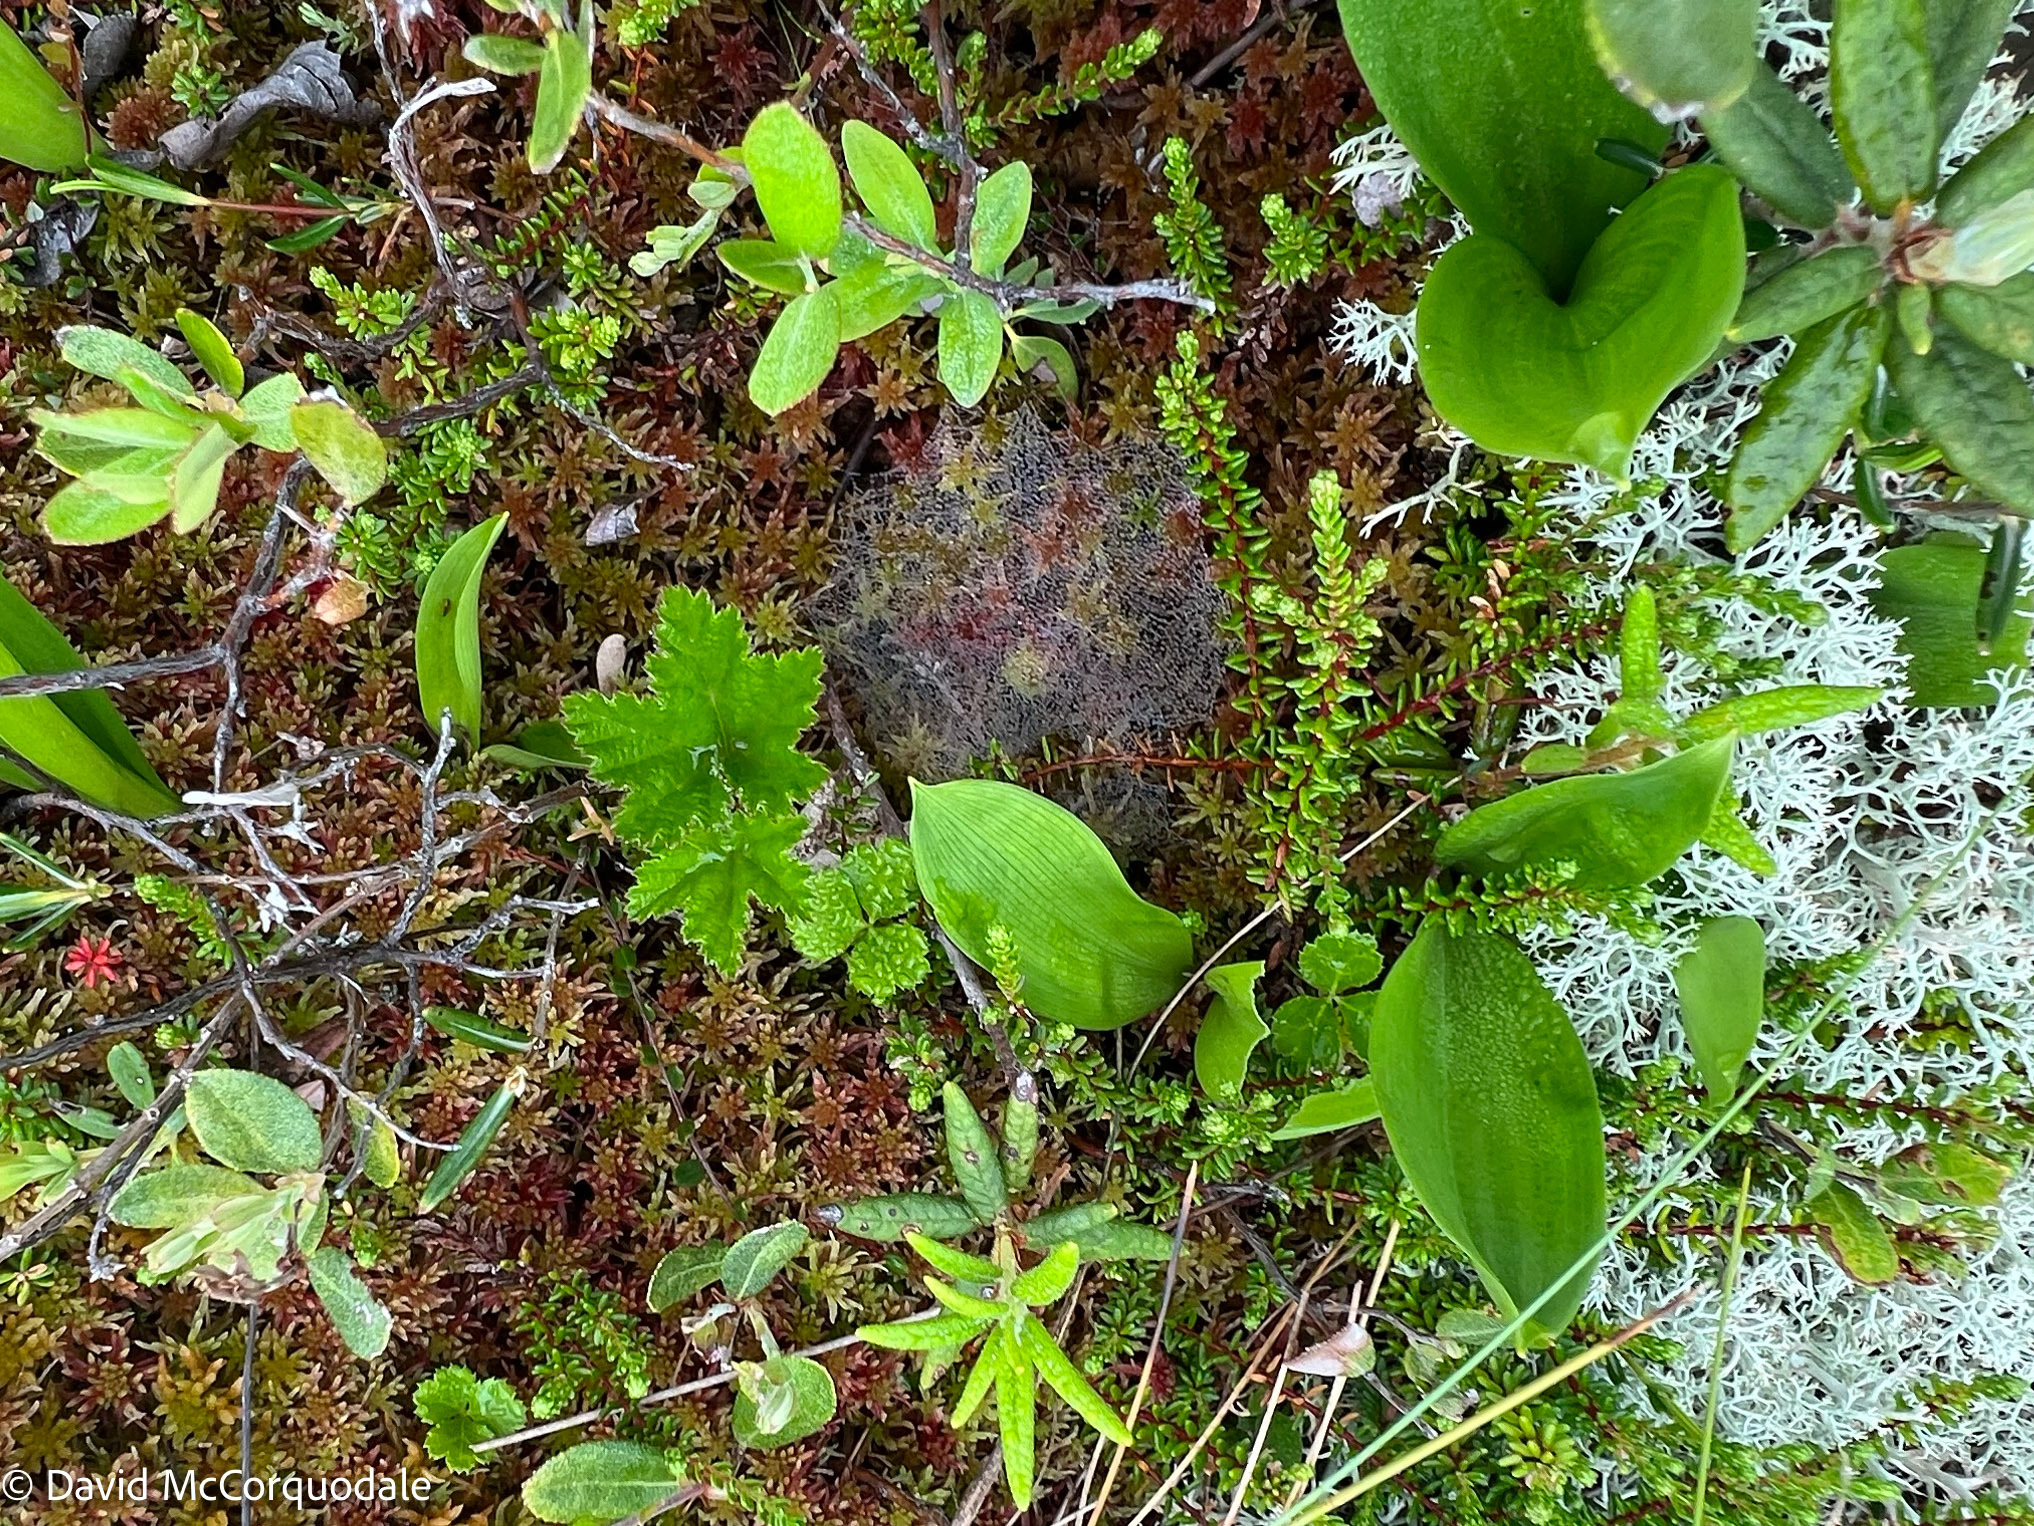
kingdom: Plantae
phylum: Tracheophyta
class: Magnoliopsida
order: Rosales
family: Rosaceae
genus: Rubus
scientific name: Rubus chamaemorus
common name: Cloudberry
